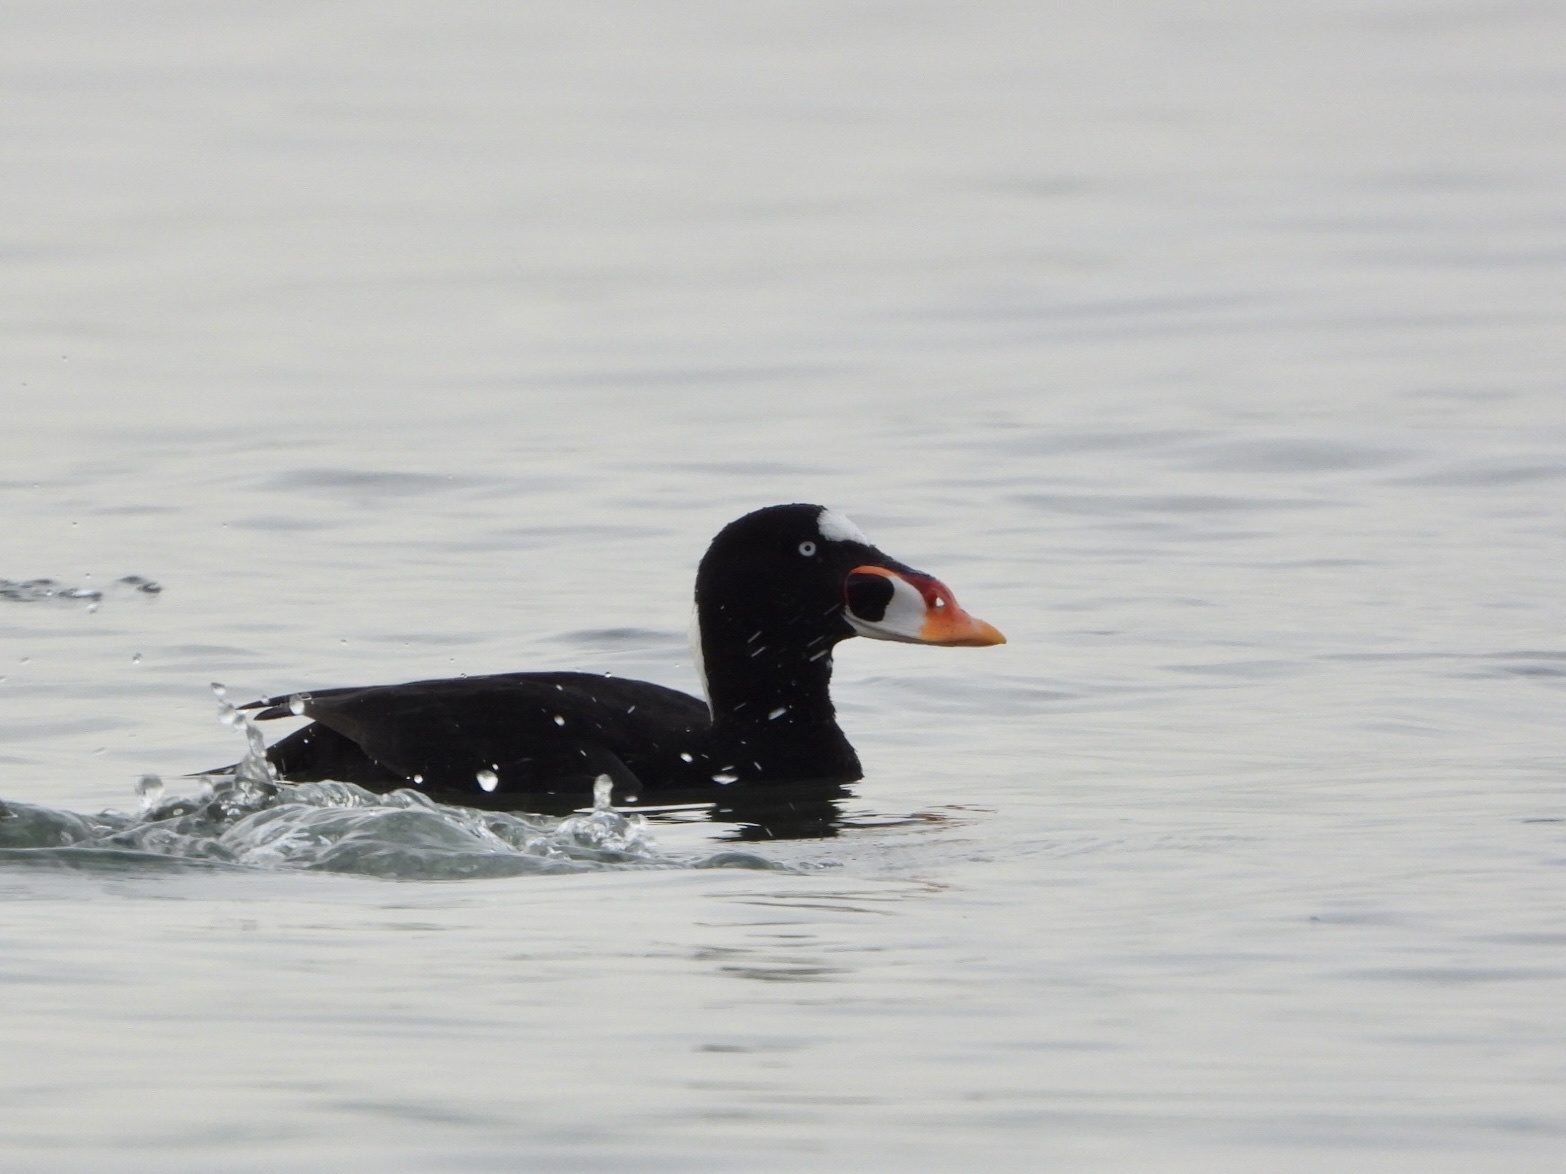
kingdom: Animalia
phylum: Chordata
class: Aves
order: Anseriformes
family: Anatidae
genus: Melanitta
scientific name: Melanitta perspicillata
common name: Surf scoter
